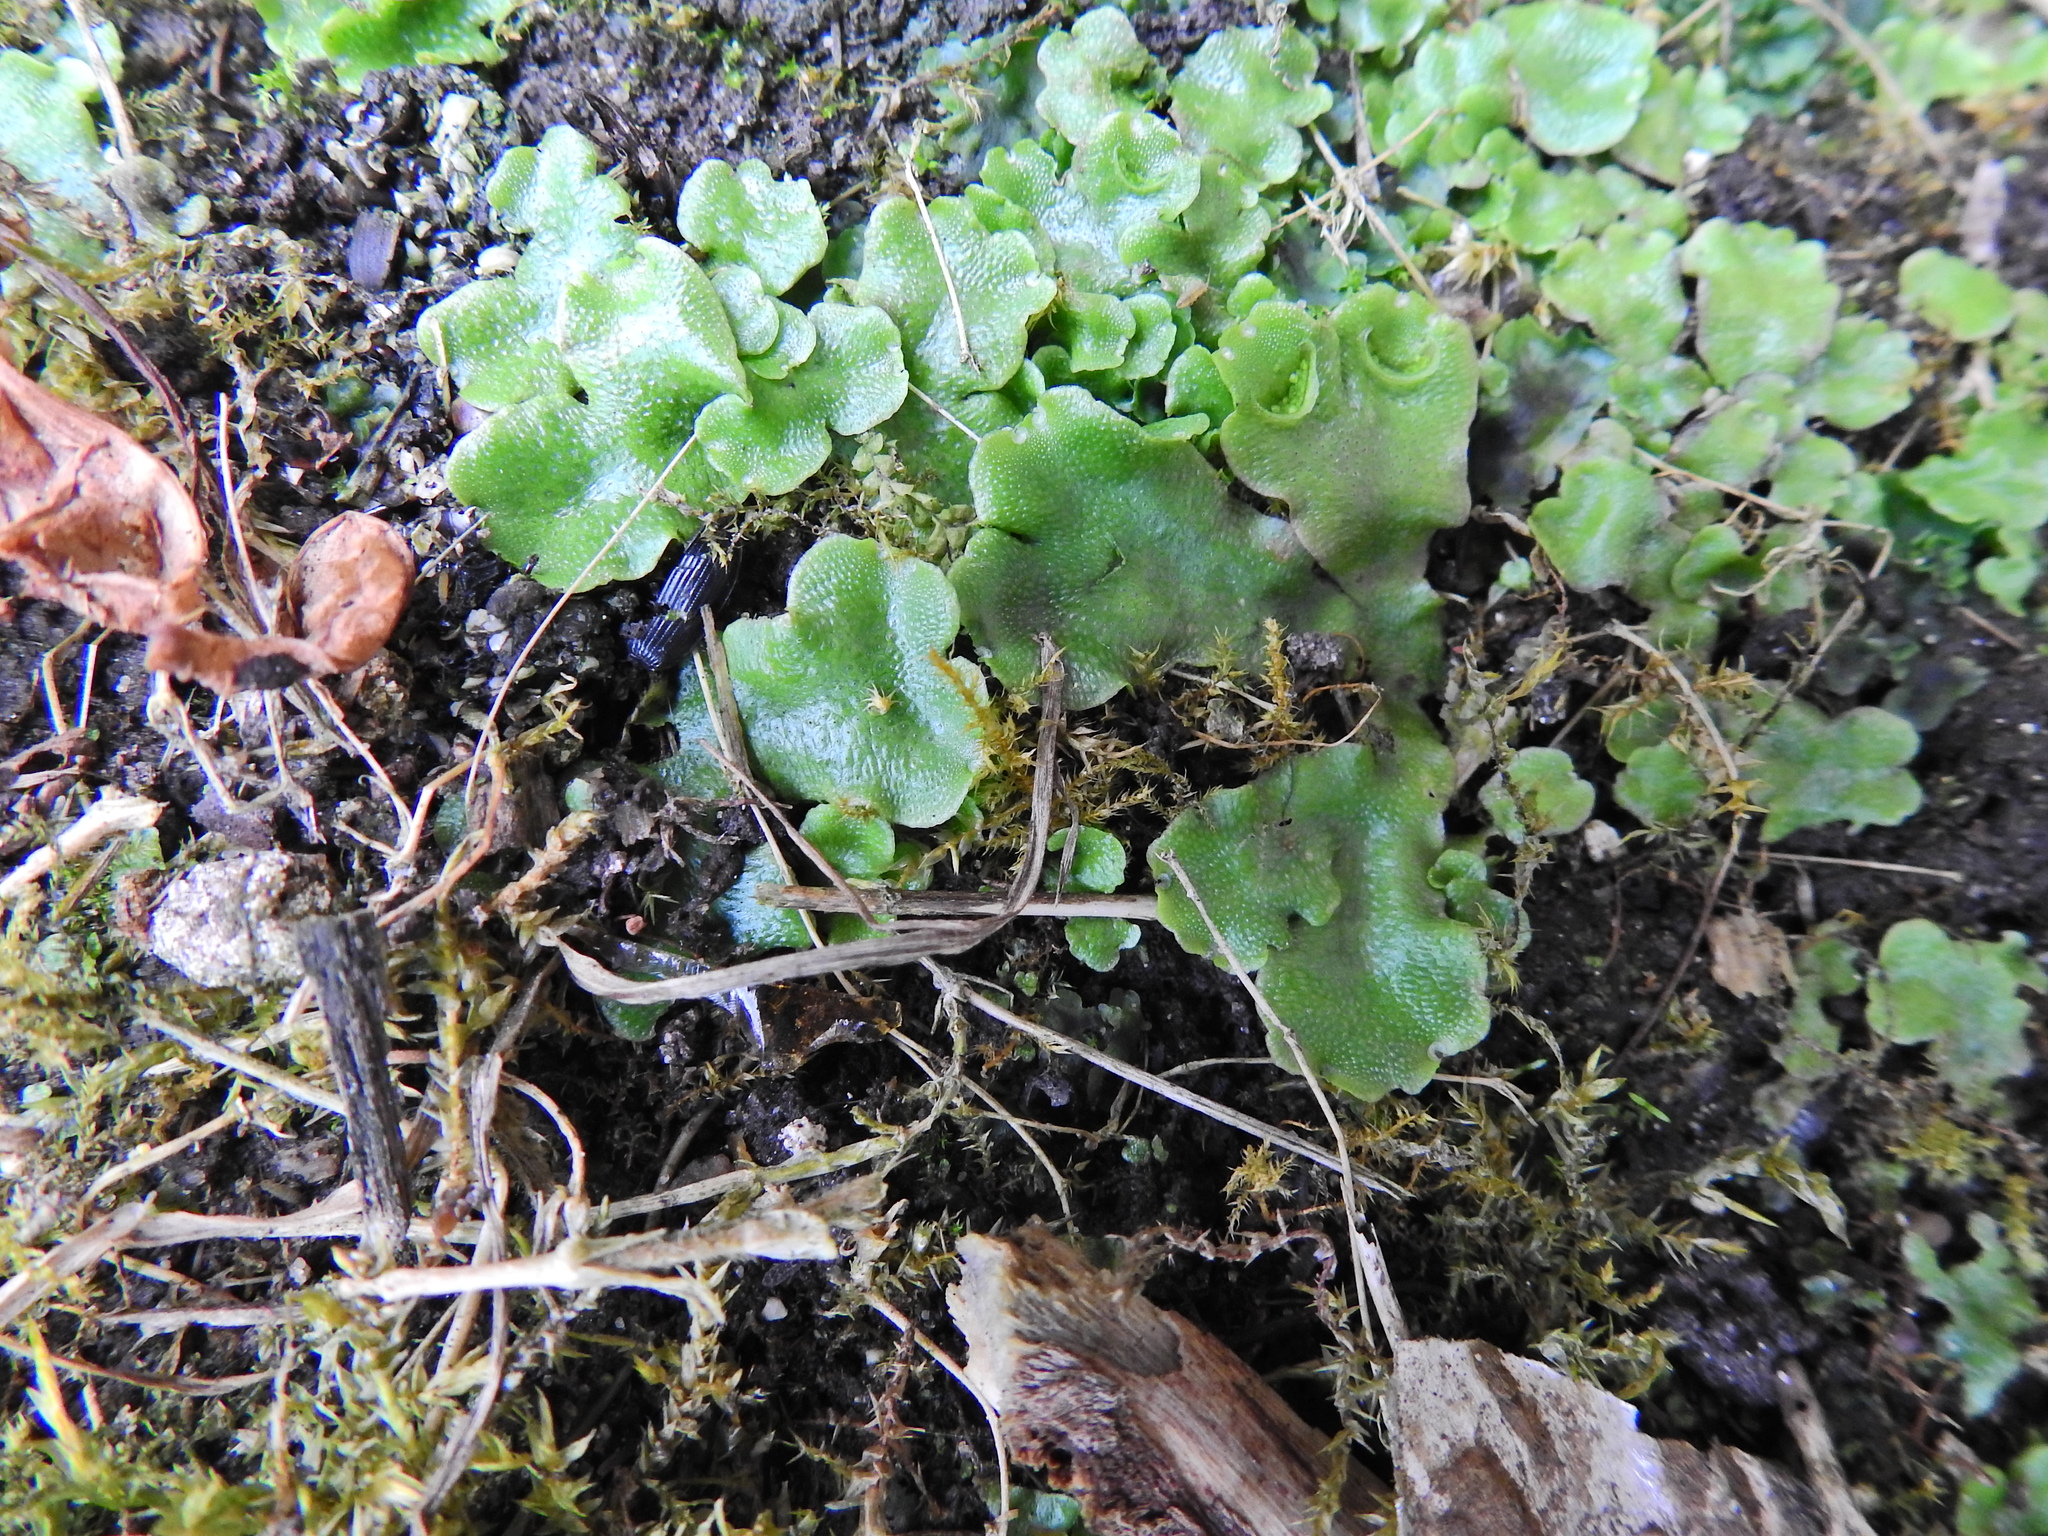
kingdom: Plantae
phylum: Marchantiophyta
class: Marchantiopsida
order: Lunulariales
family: Lunulariaceae
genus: Lunularia
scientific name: Lunularia cruciata
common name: Crescent-cup liverwort
